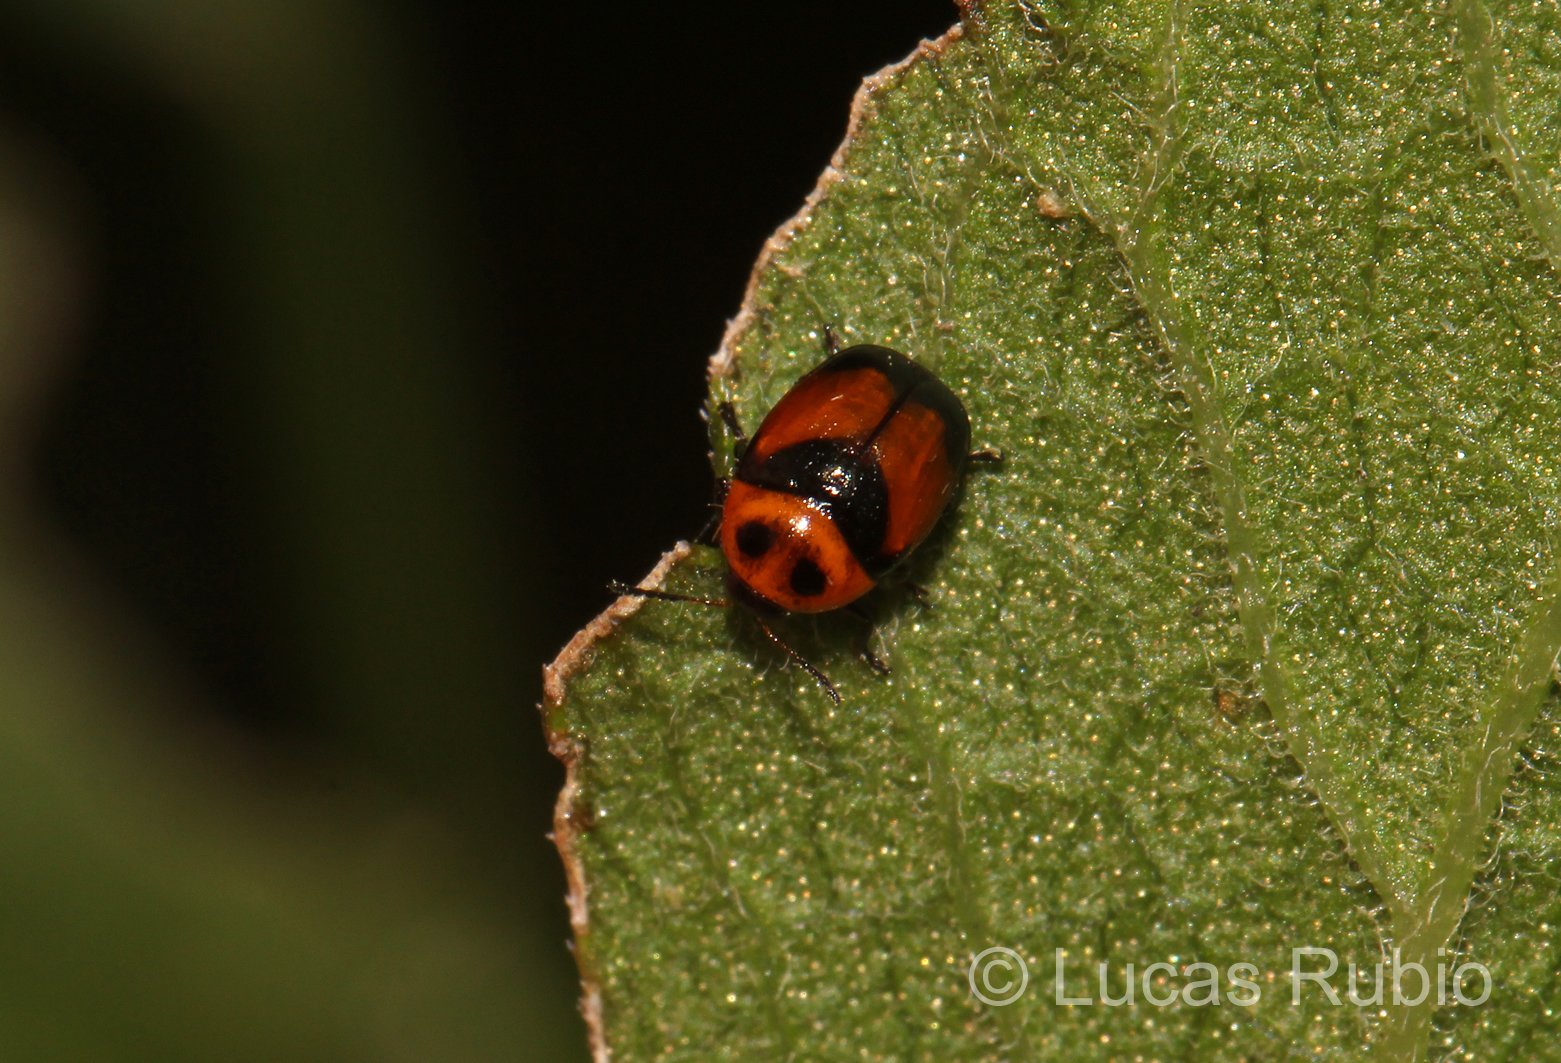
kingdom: Animalia
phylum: Arthropoda
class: Insecta
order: Coleoptera
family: Chrysomelidae
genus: Lexiphanes
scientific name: Lexiphanes
